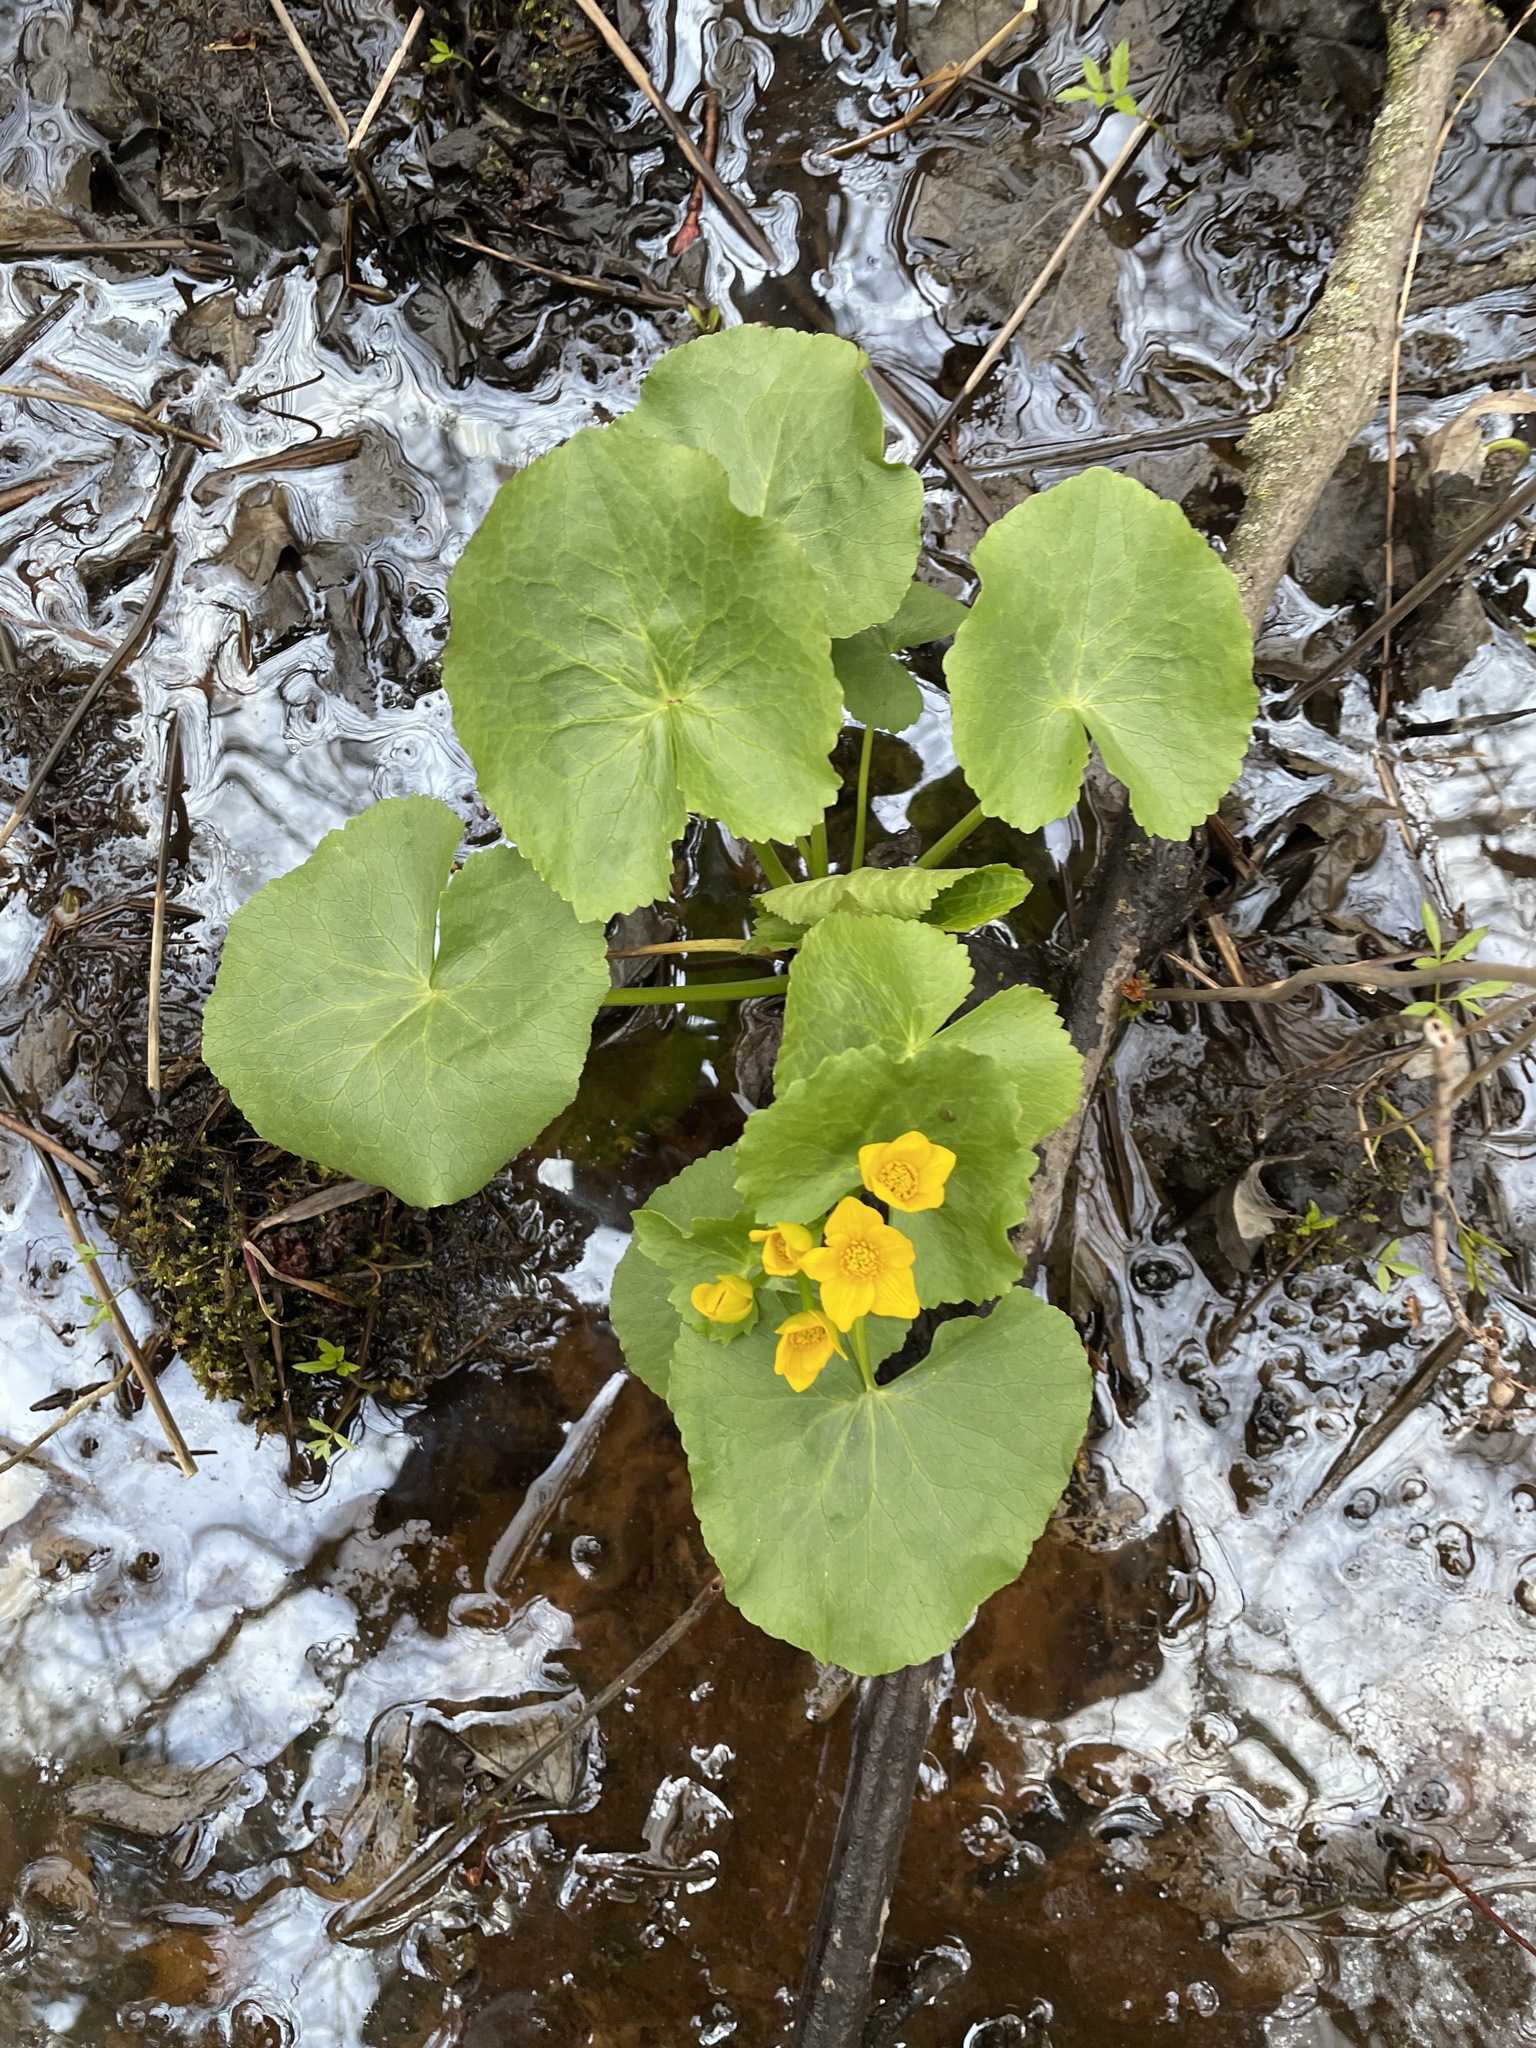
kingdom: Plantae
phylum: Tracheophyta
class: Magnoliopsida
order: Ranunculales
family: Ranunculaceae
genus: Caltha
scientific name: Caltha palustris
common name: Marsh marigold
